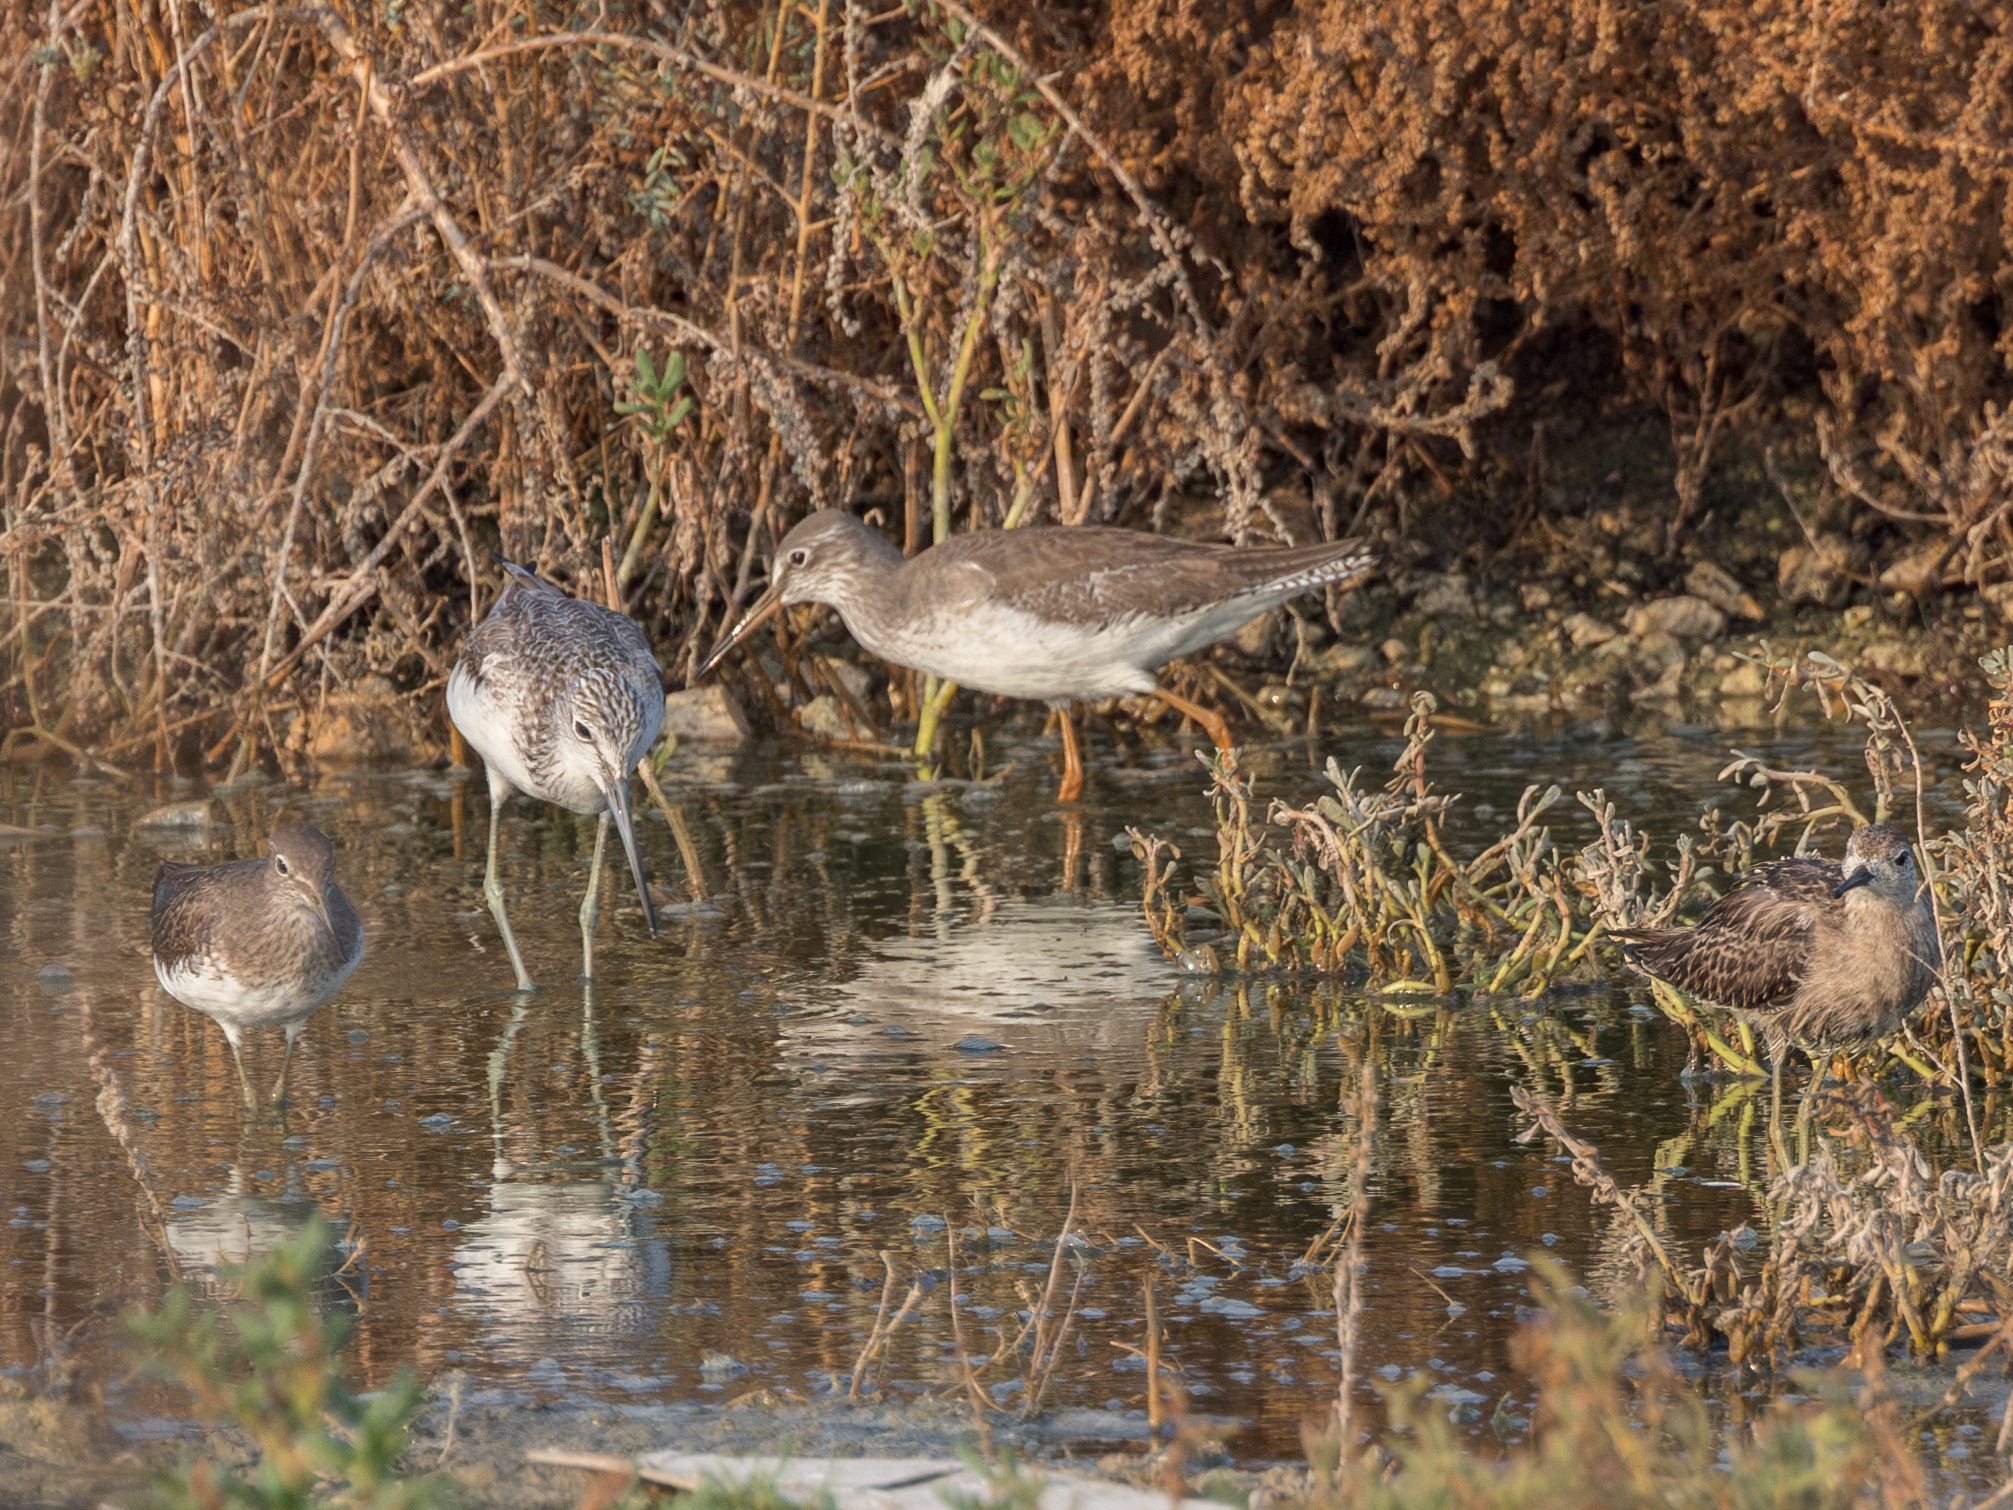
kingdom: Animalia
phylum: Chordata
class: Aves
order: Charadriiformes
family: Scolopacidae
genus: Tringa
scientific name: Tringa totanus
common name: Common redshank
